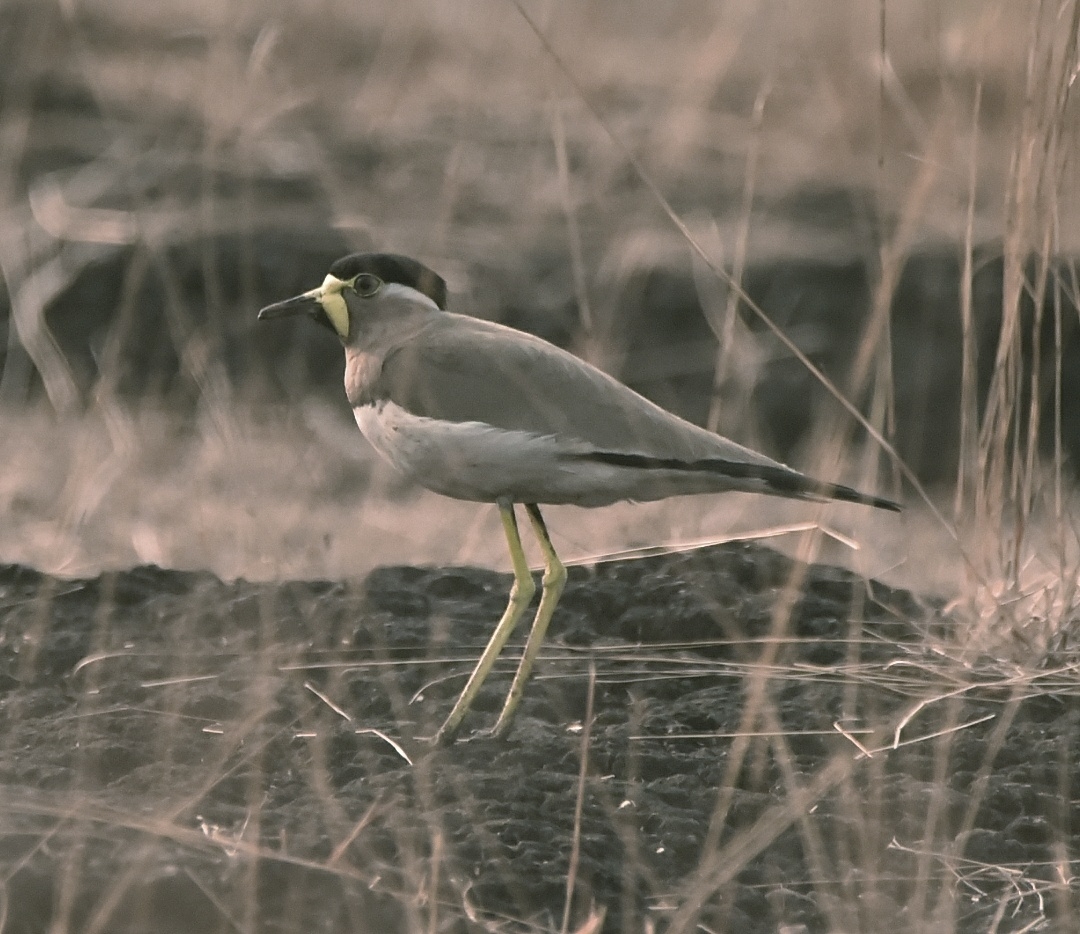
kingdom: Animalia
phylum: Chordata
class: Aves
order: Charadriiformes
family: Charadriidae
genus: Vanellus
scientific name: Vanellus malabaricus
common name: Yellow-wattled lapwing
